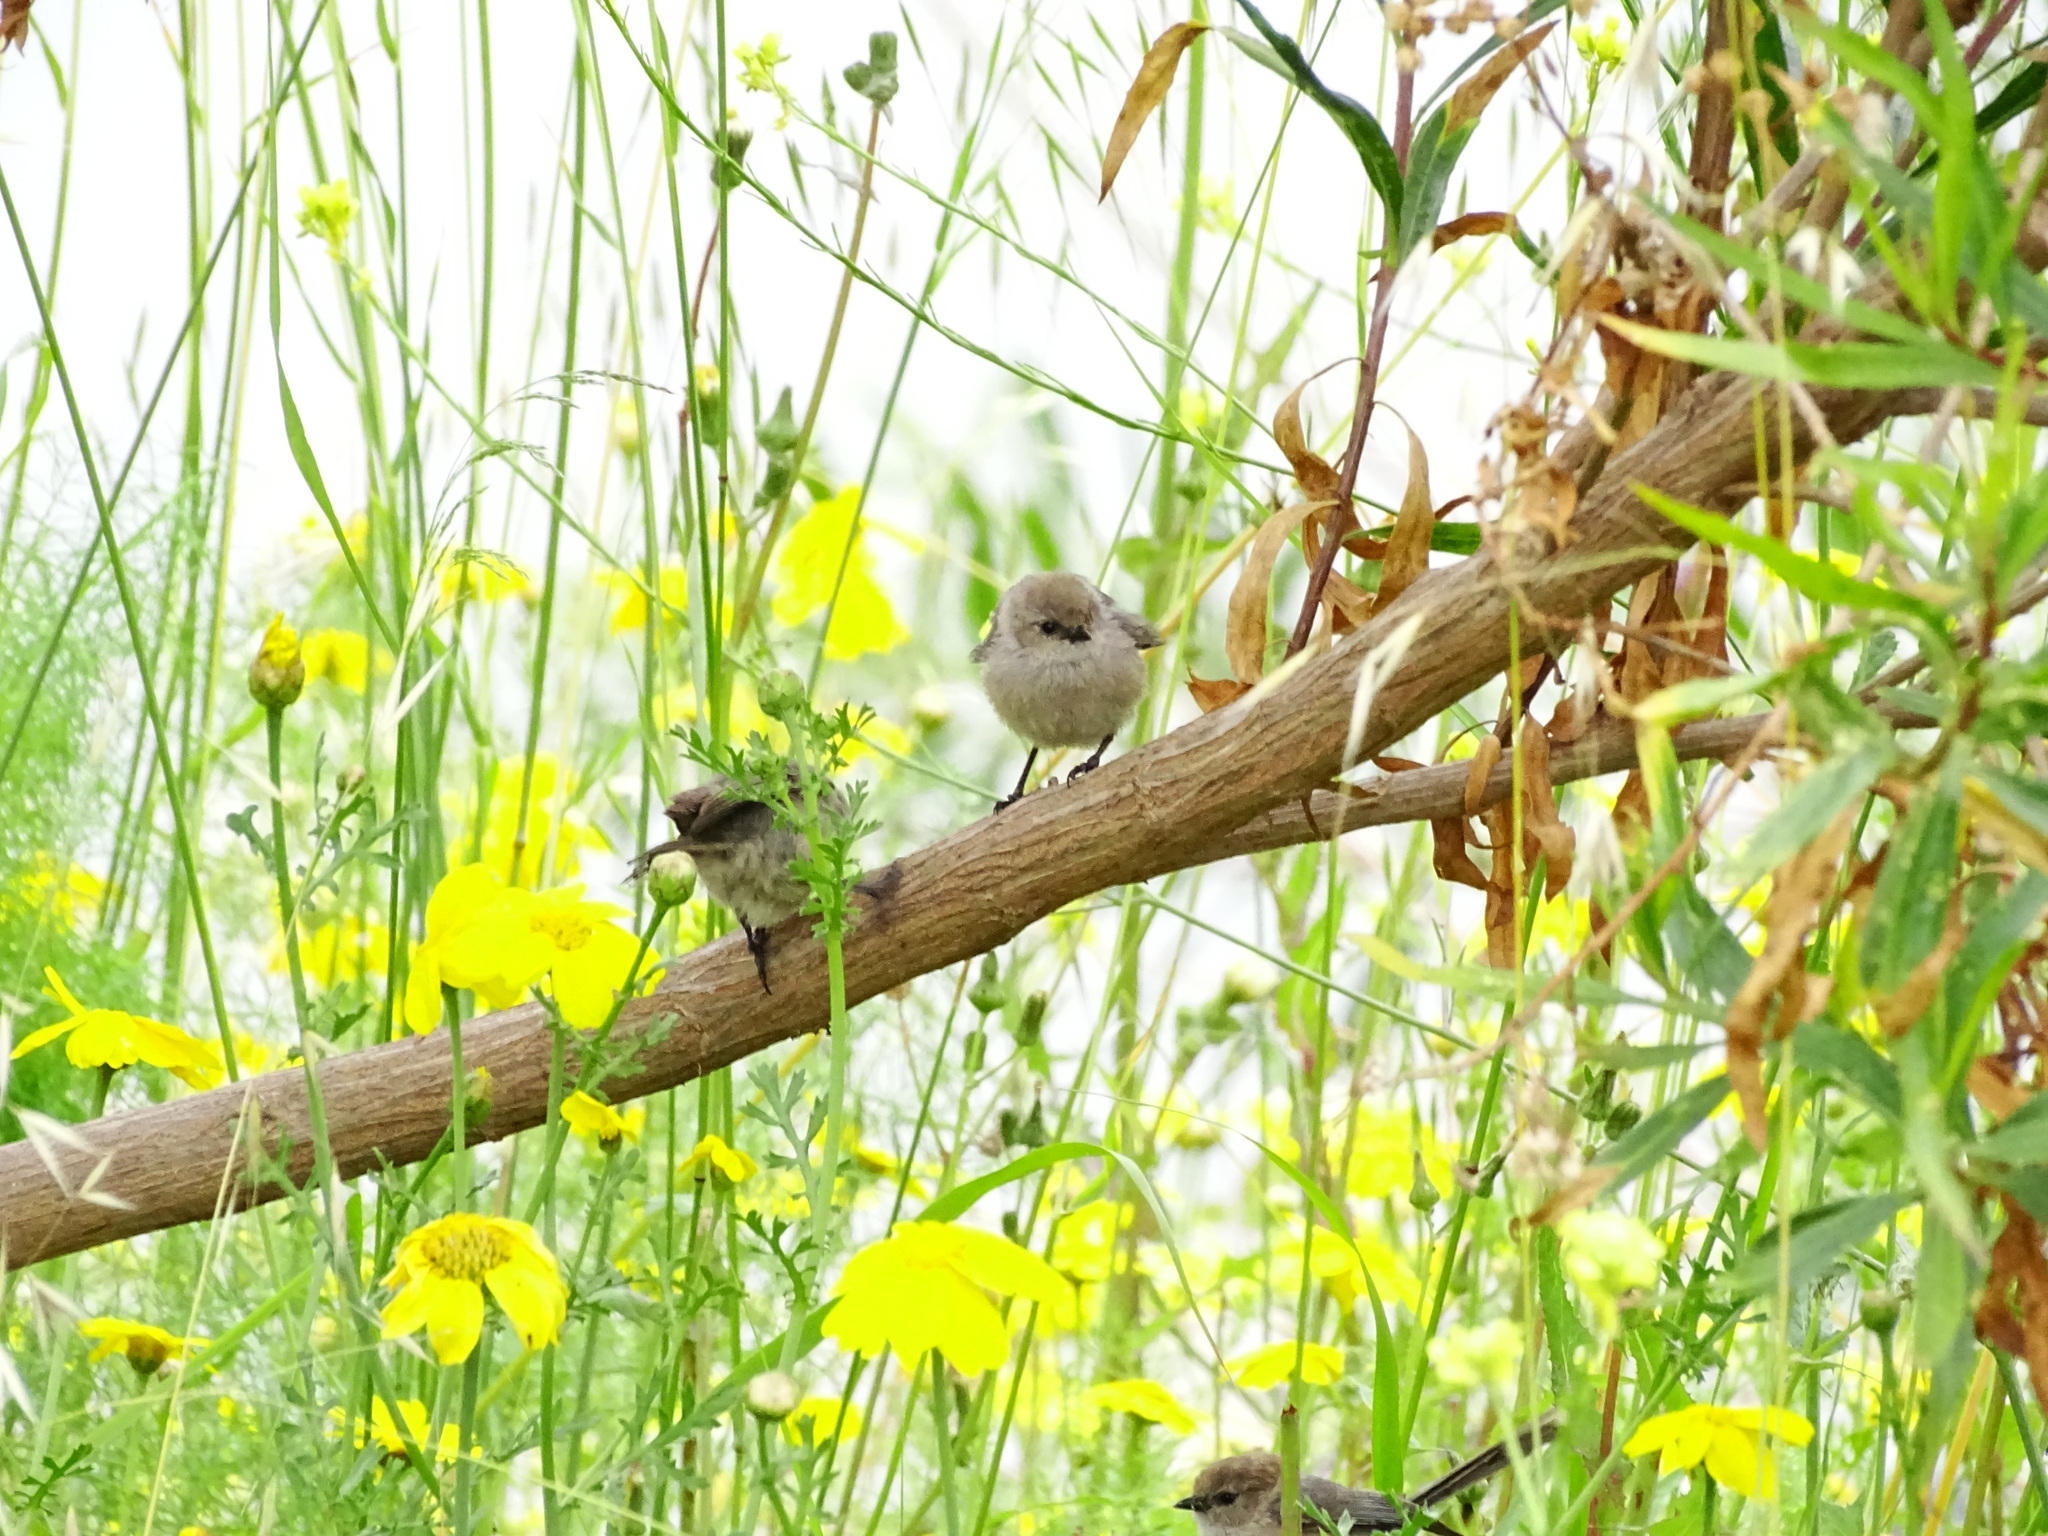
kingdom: Animalia
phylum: Chordata
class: Aves
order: Passeriformes
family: Aegithalidae
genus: Psaltriparus
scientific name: Psaltriparus minimus
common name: American bushtit
